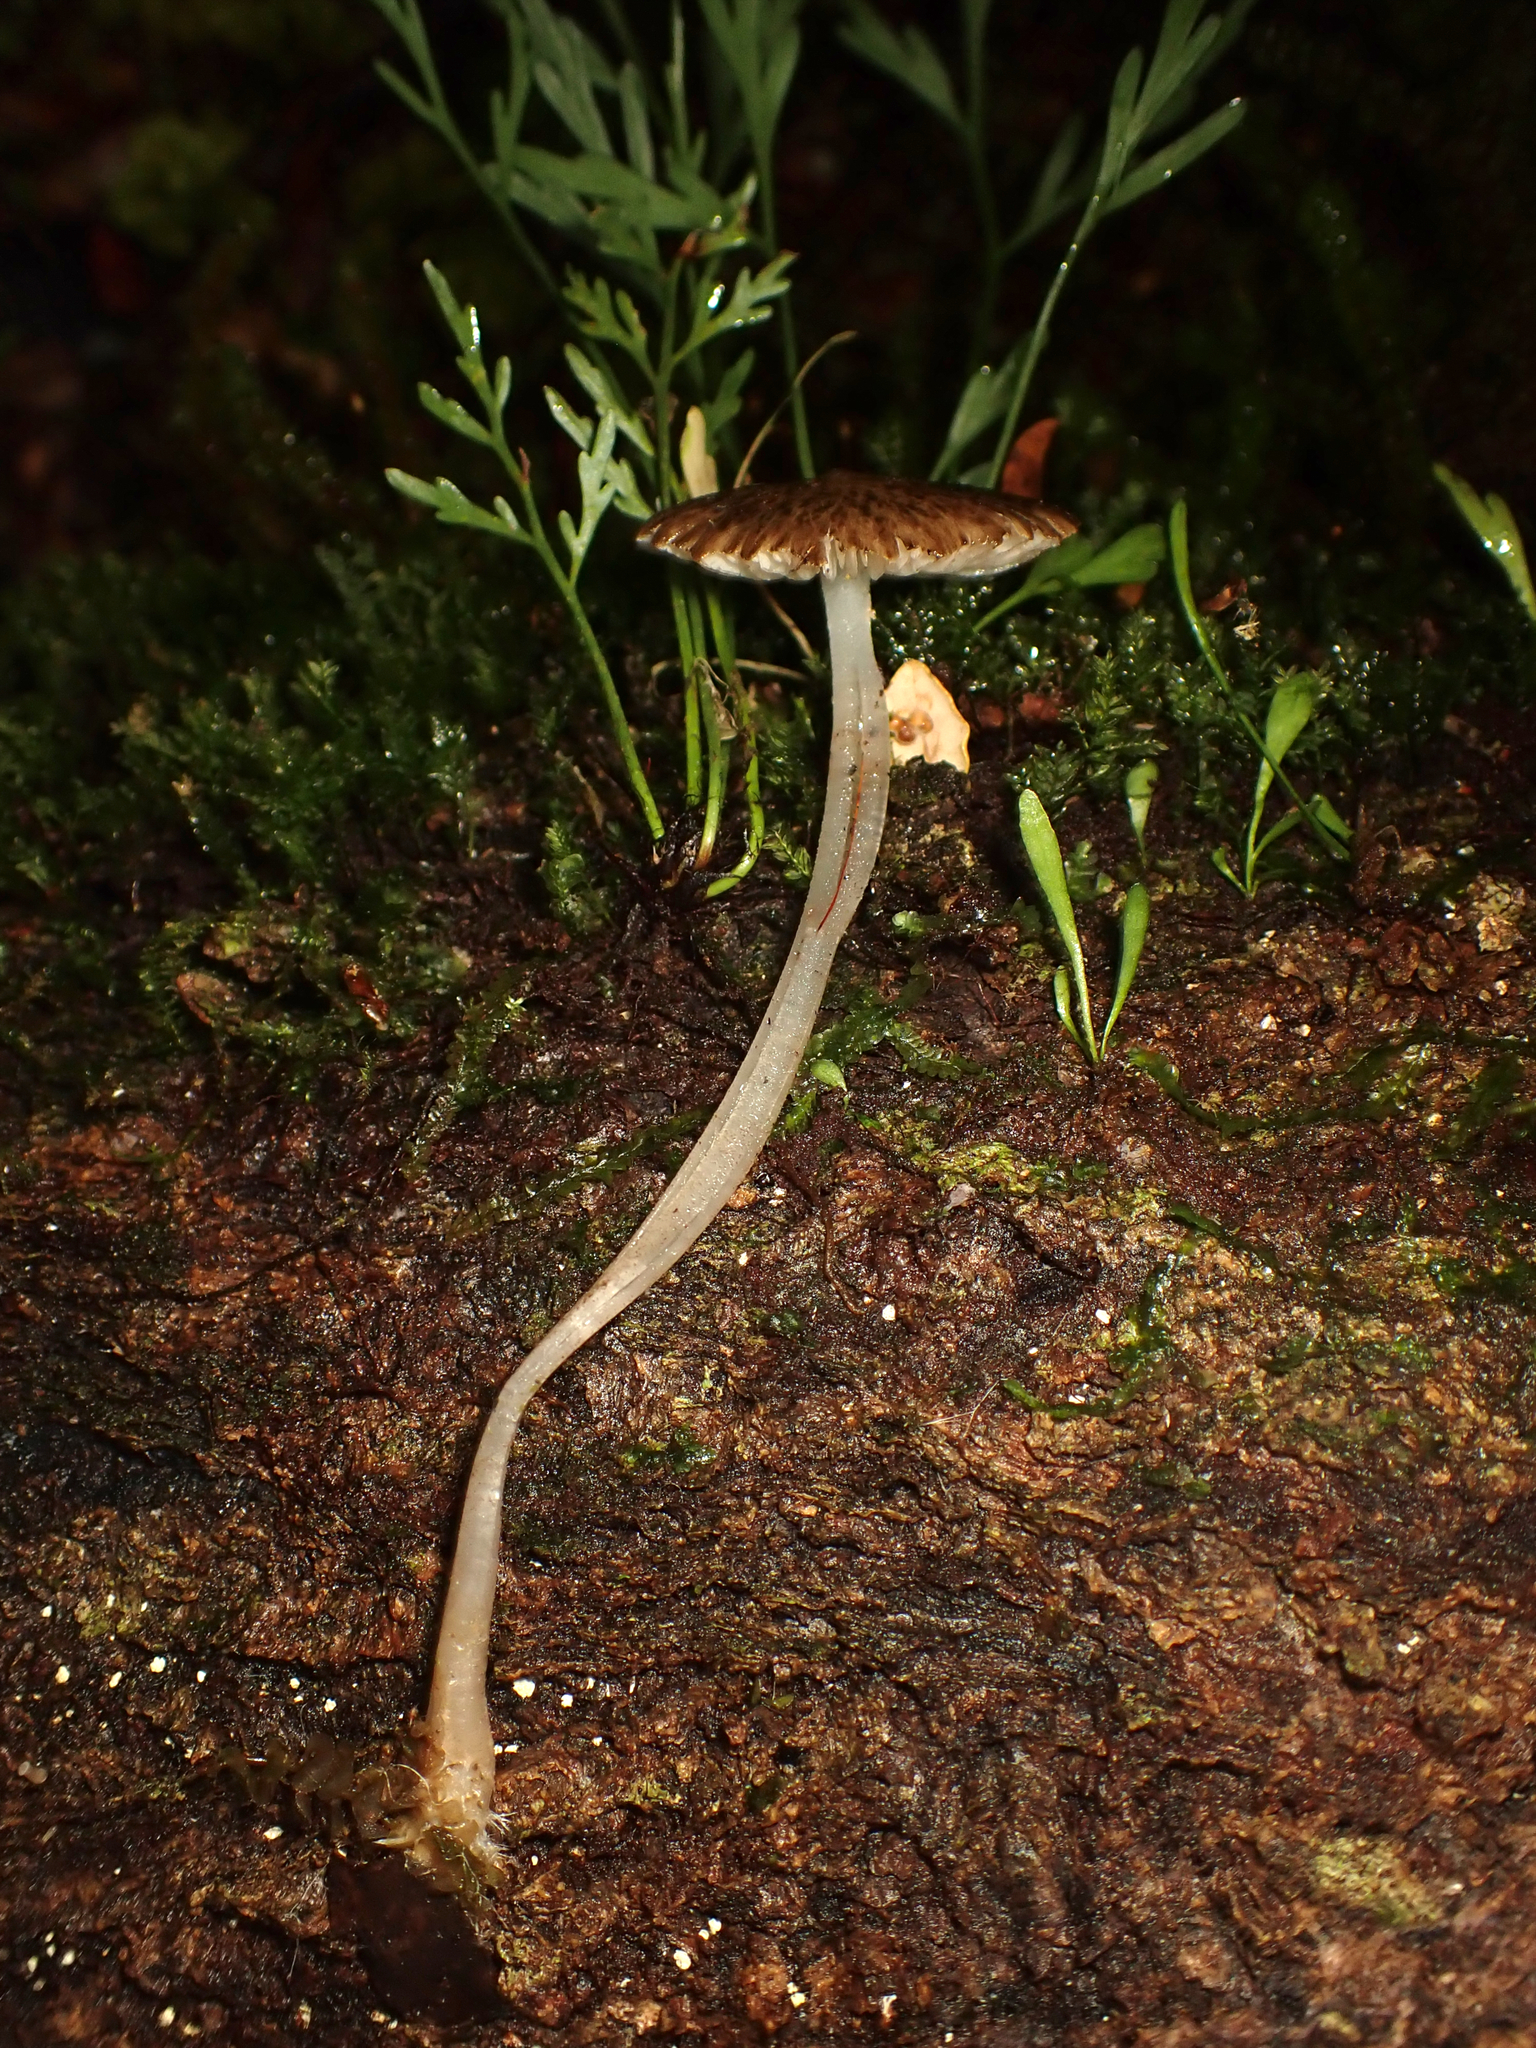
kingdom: Fungi
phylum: Basidiomycota
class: Agaricomycetes
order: Agaricales
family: Porotheleaceae
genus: Pseudohydropus
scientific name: Pseudohydropus parafunebris
